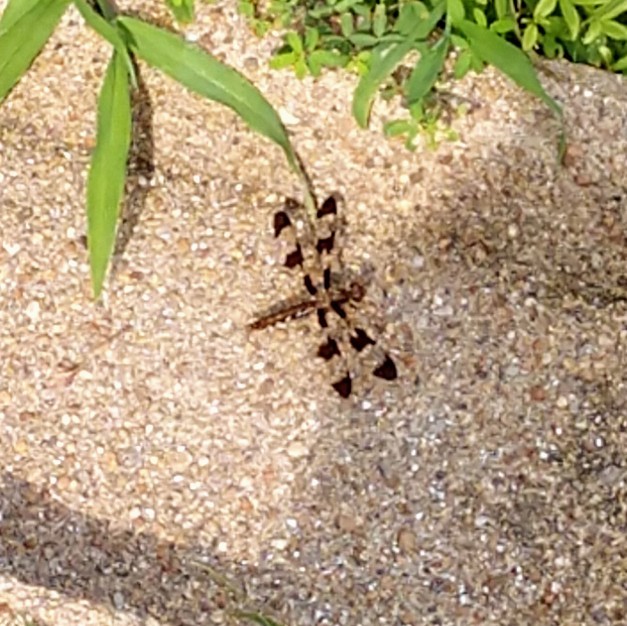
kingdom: Animalia
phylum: Arthropoda
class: Insecta
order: Odonata
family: Libellulidae
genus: Plathemis
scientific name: Plathemis lydia
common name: Common whitetail
